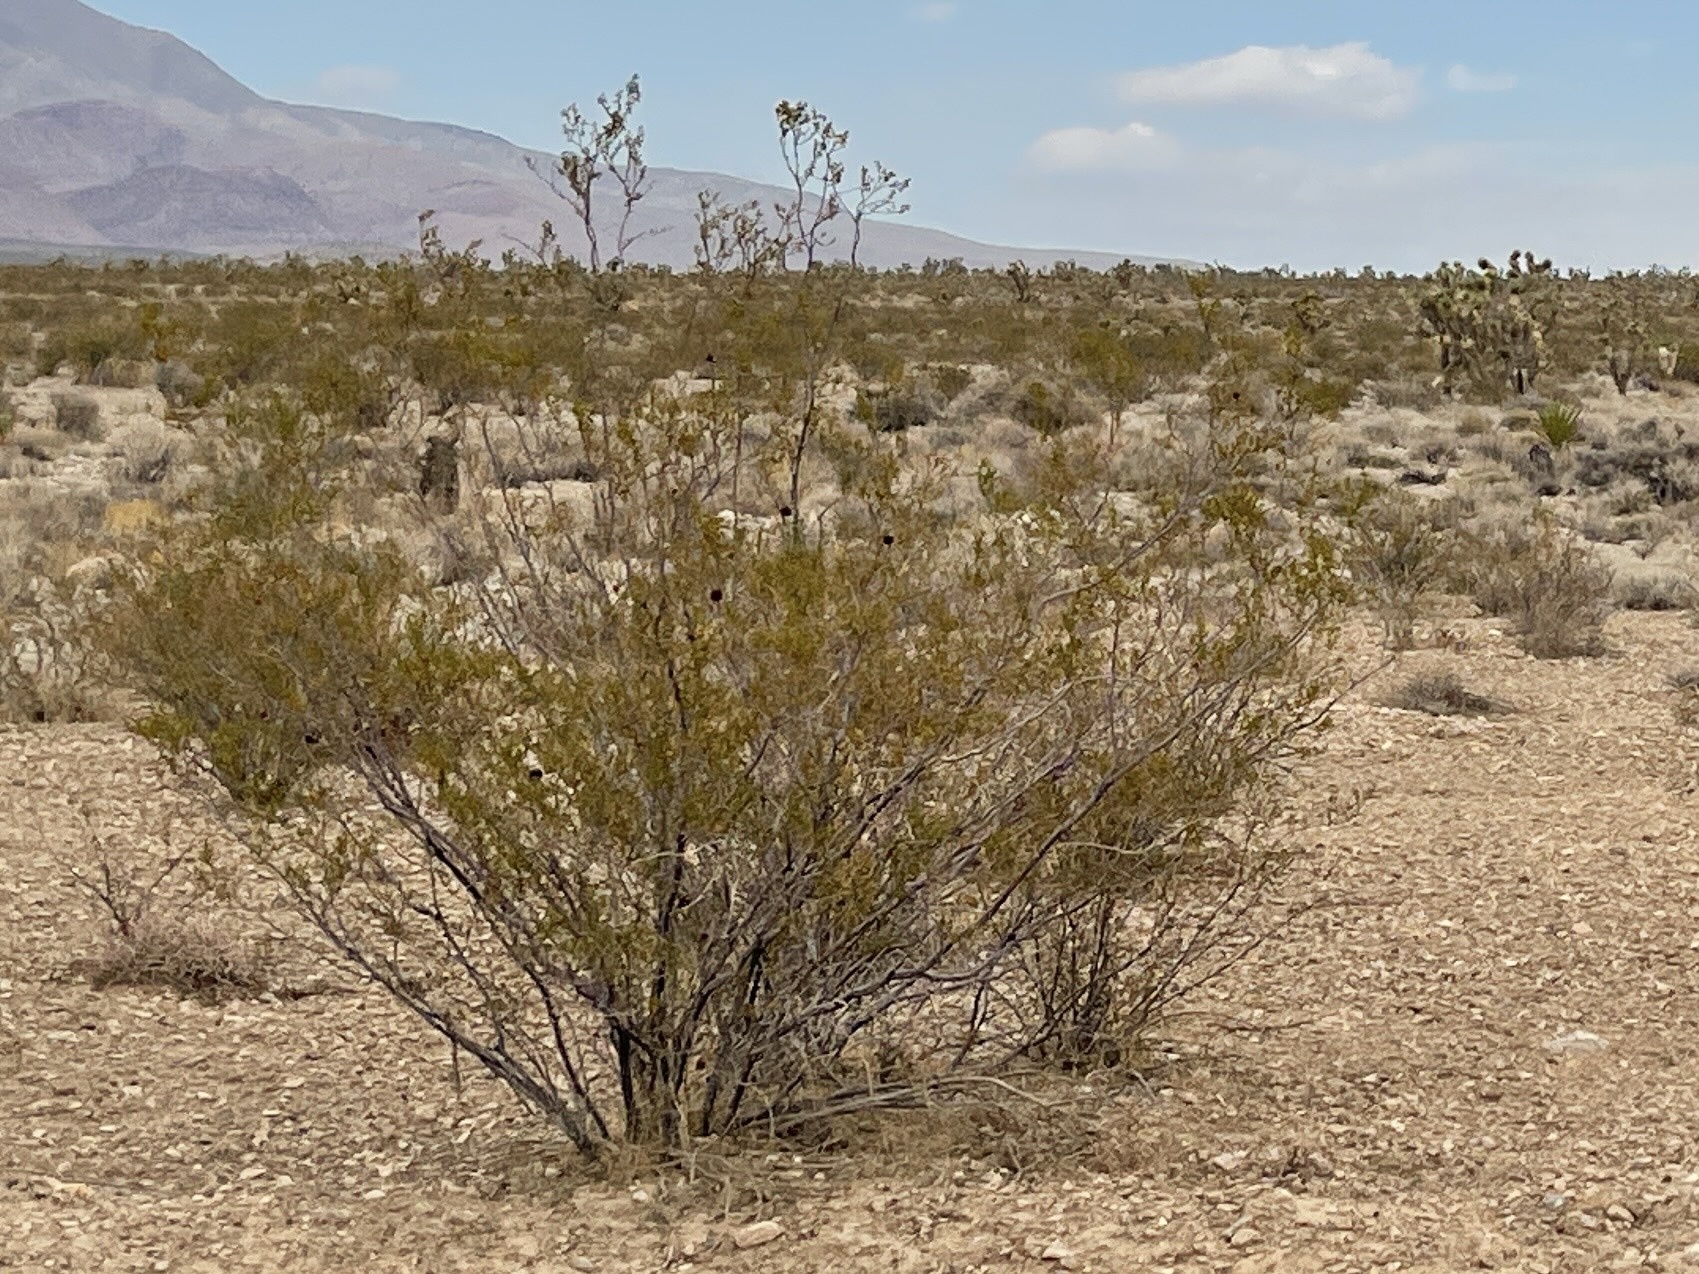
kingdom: Plantae
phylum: Tracheophyta
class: Magnoliopsida
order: Zygophyllales
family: Zygophyllaceae
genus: Larrea
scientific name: Larrea tridentata
